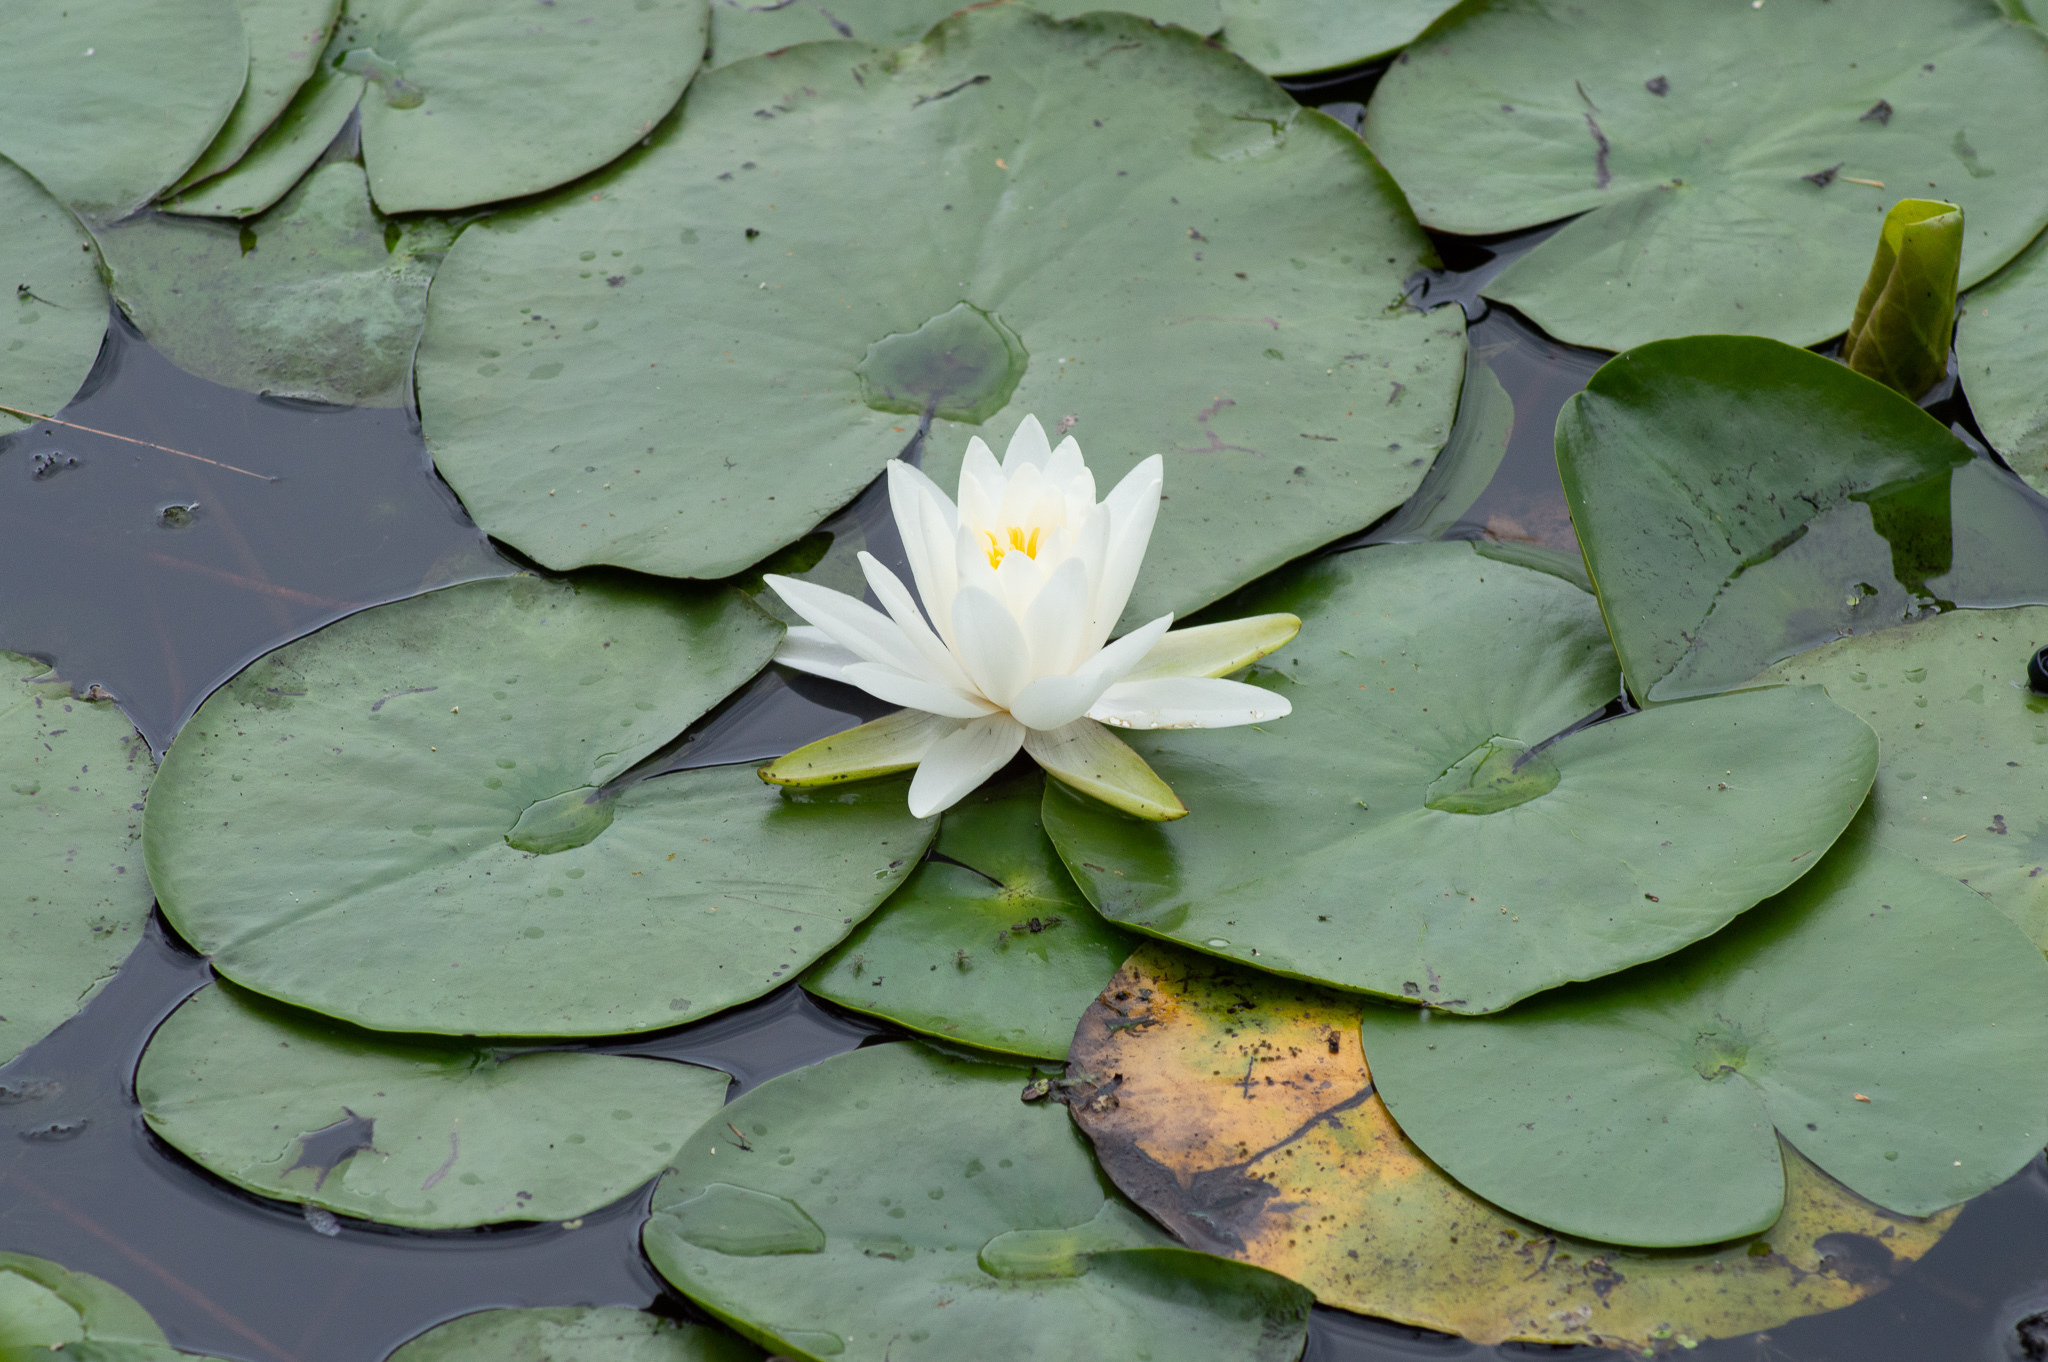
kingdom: Plantae
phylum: Tracheophyta
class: Magnoliopsida
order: Nymphaeales
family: Nymphaeaceae
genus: Nymphaea
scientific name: Nymphaea odorata
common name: Fragrant water-lily
